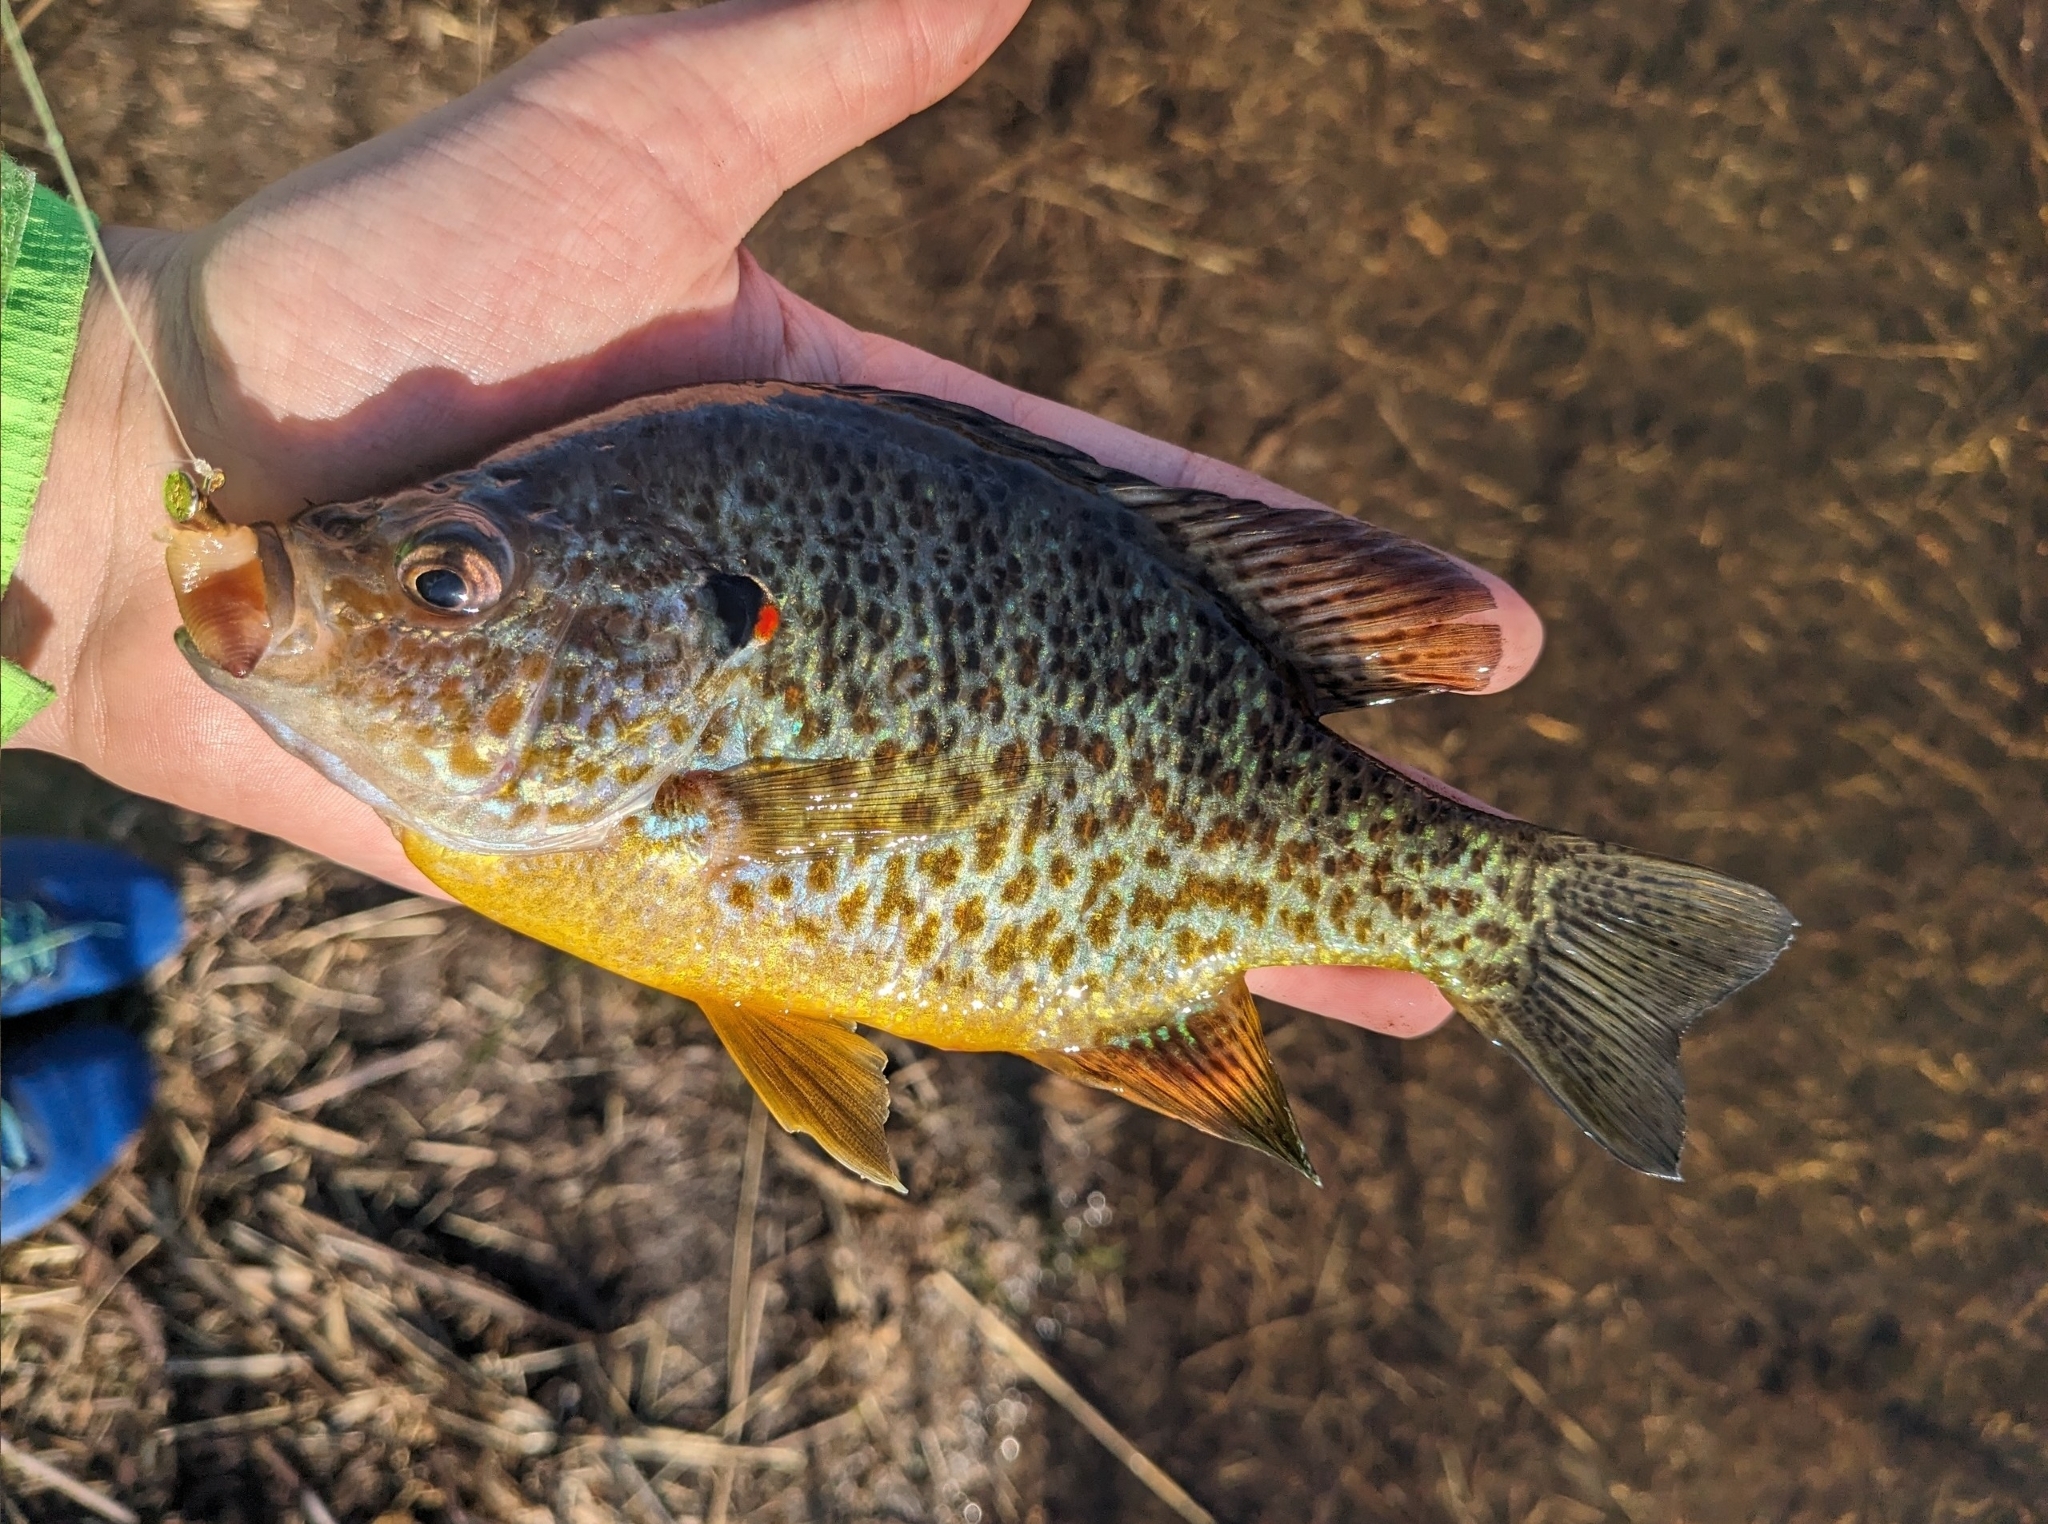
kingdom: Animalia
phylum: Chordata
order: Perciformes
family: Centrarchidae
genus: Lepomis
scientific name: Lepomis gibbosus
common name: Pumpkinseed
